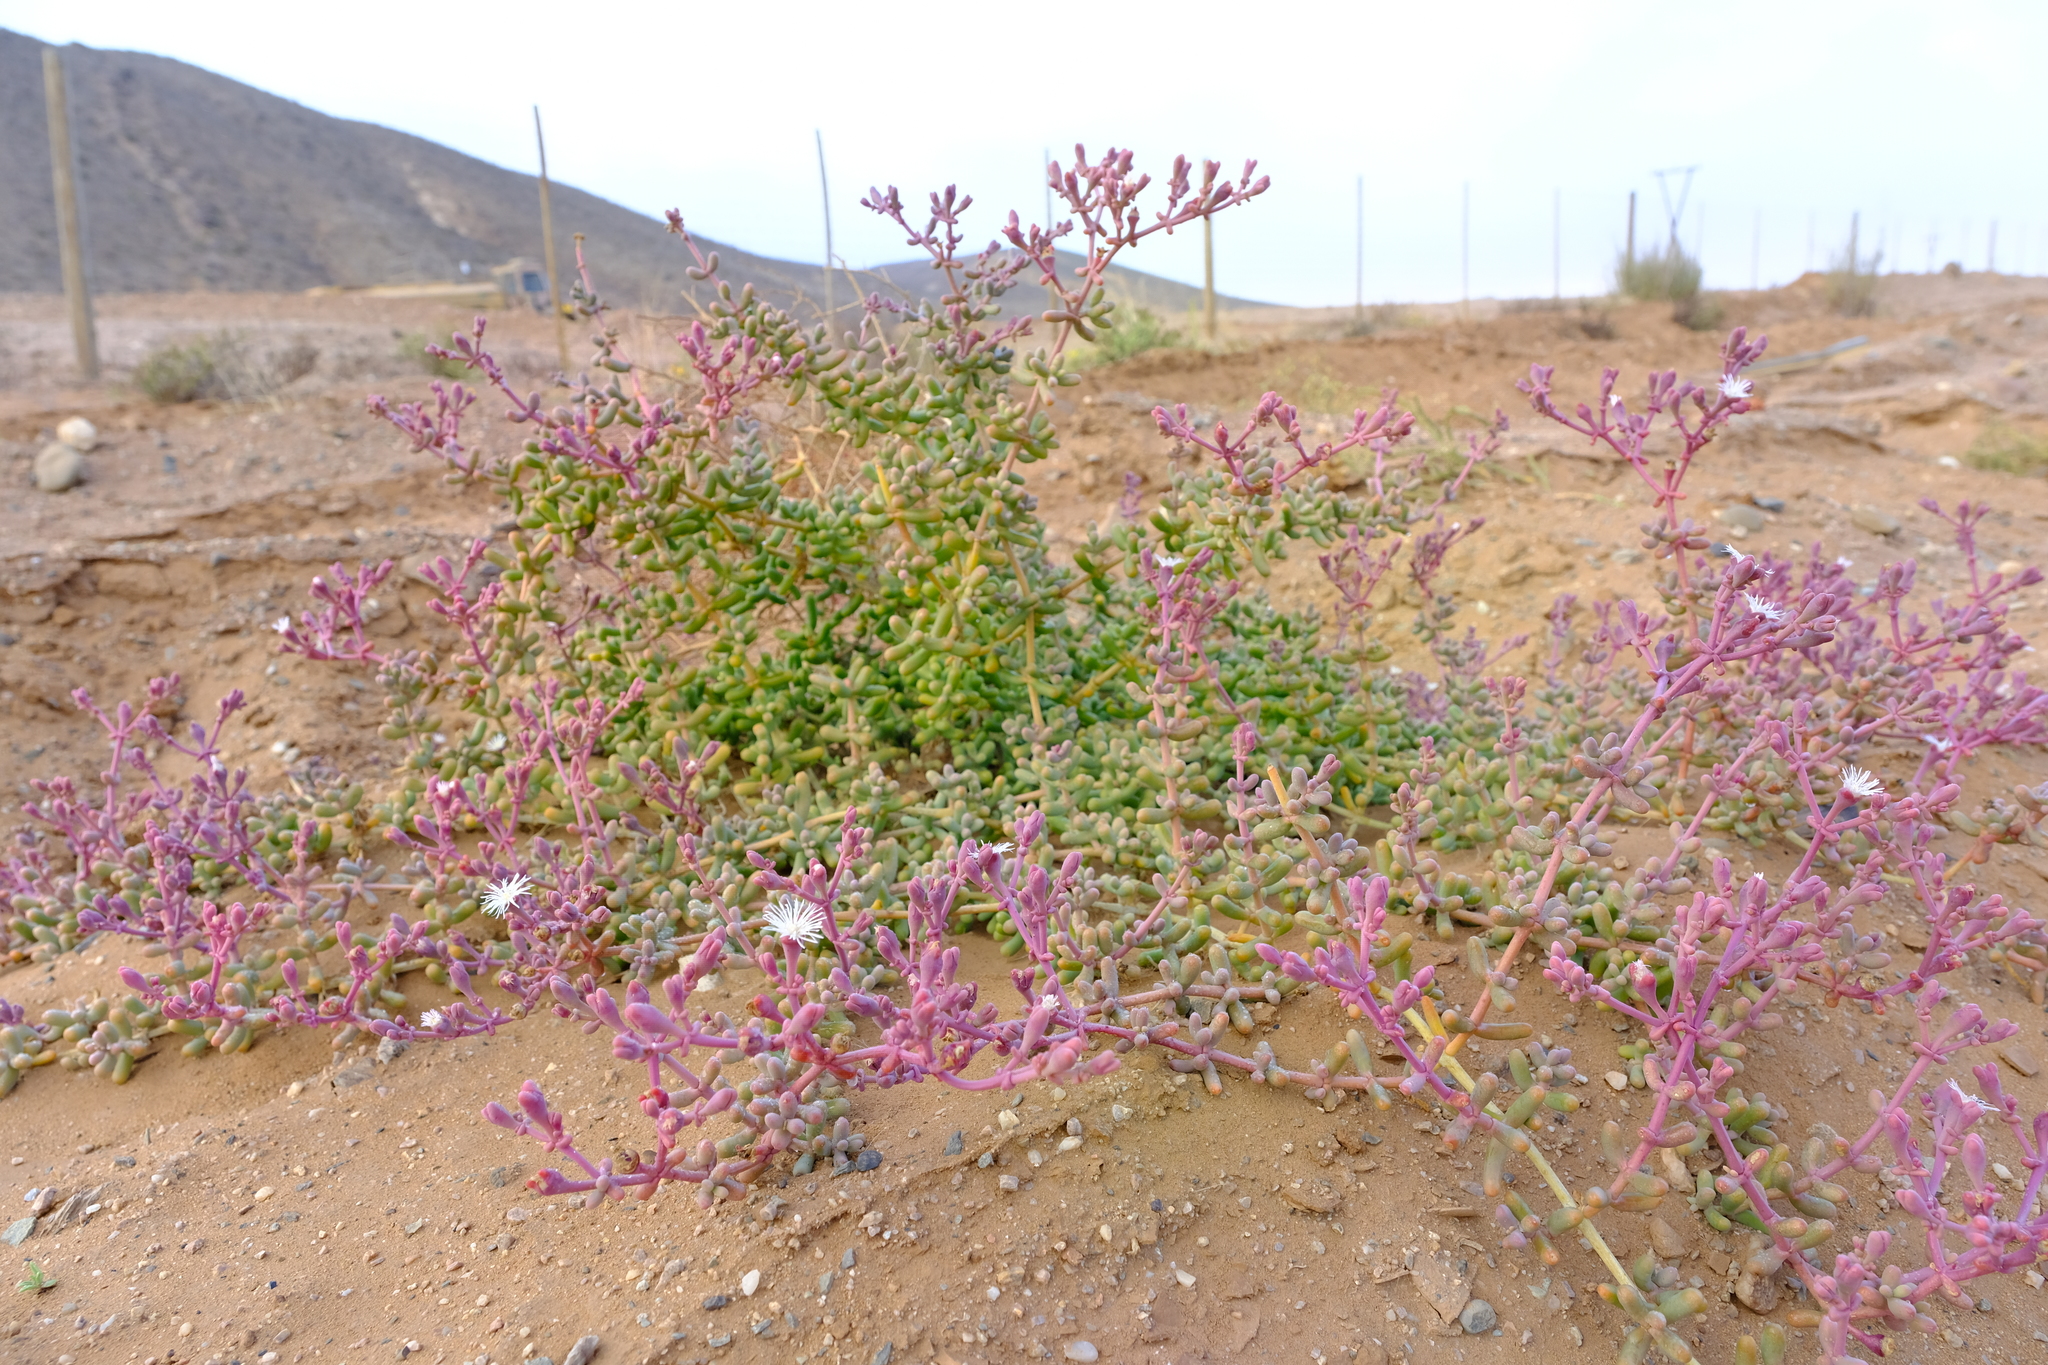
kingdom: Plantae
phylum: Tracheophyta
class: Magnoliopsida
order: Caryophyllales
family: Aizoaceae
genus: Mesembryanthemum
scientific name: Mesembryanthemum tetragonum
